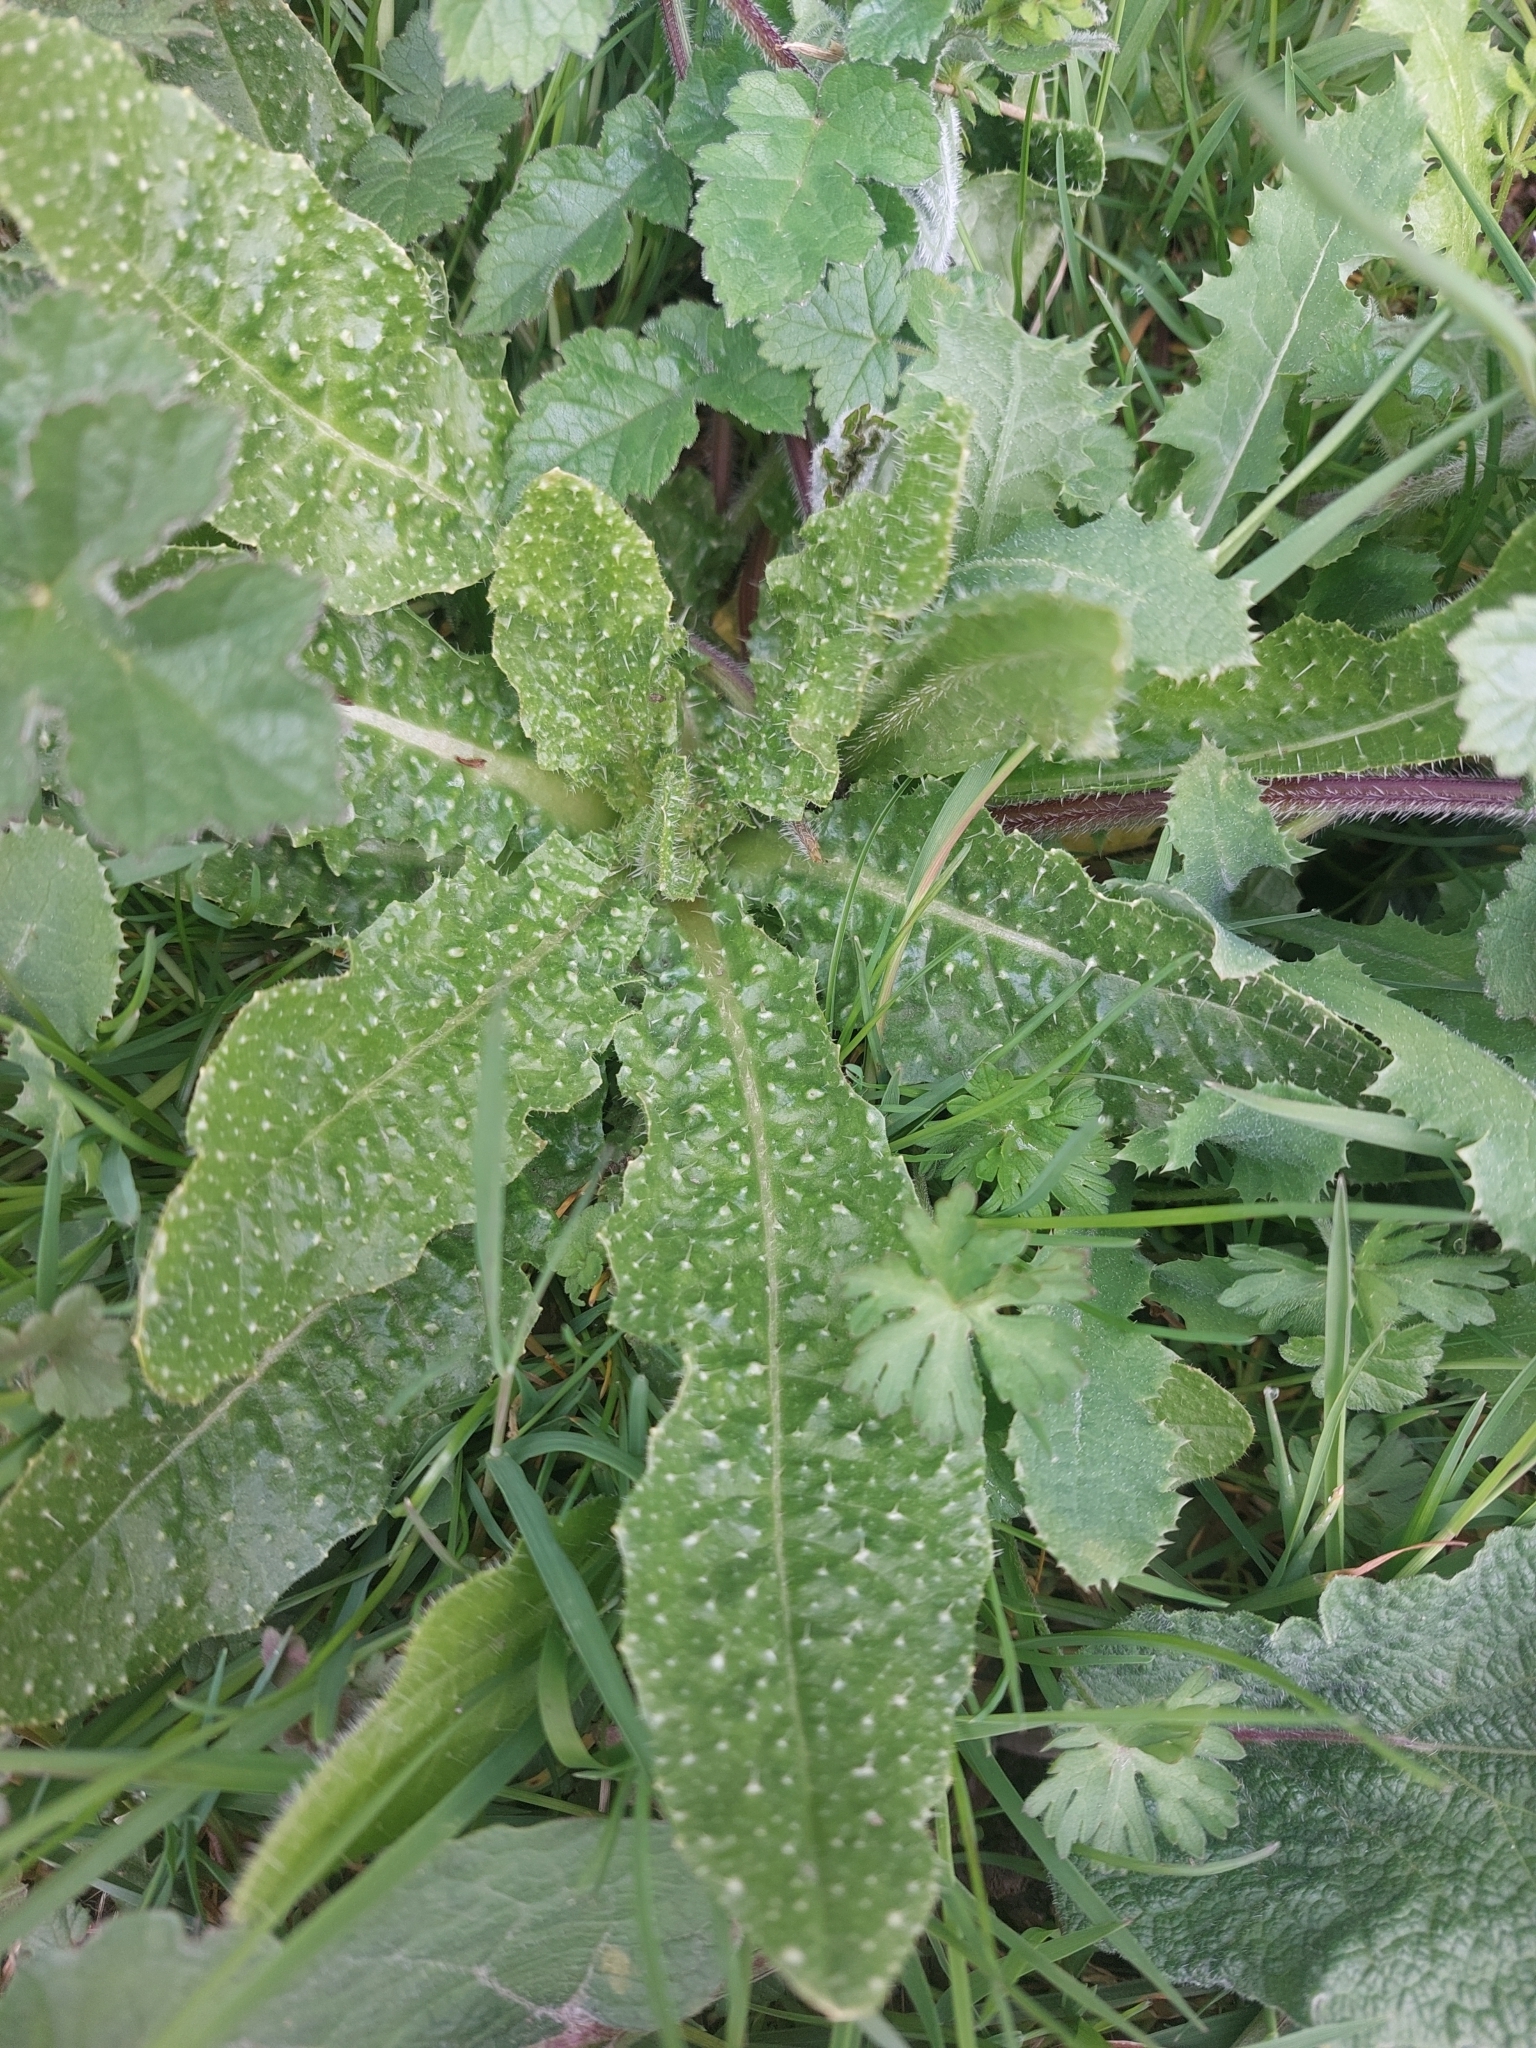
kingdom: Plantae
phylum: Tracheophyta
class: Magnoliopsida
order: Asterales
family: Asteraceae
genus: Helminthotheca
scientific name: Helminthotheca echioides
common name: Ox-tongue
